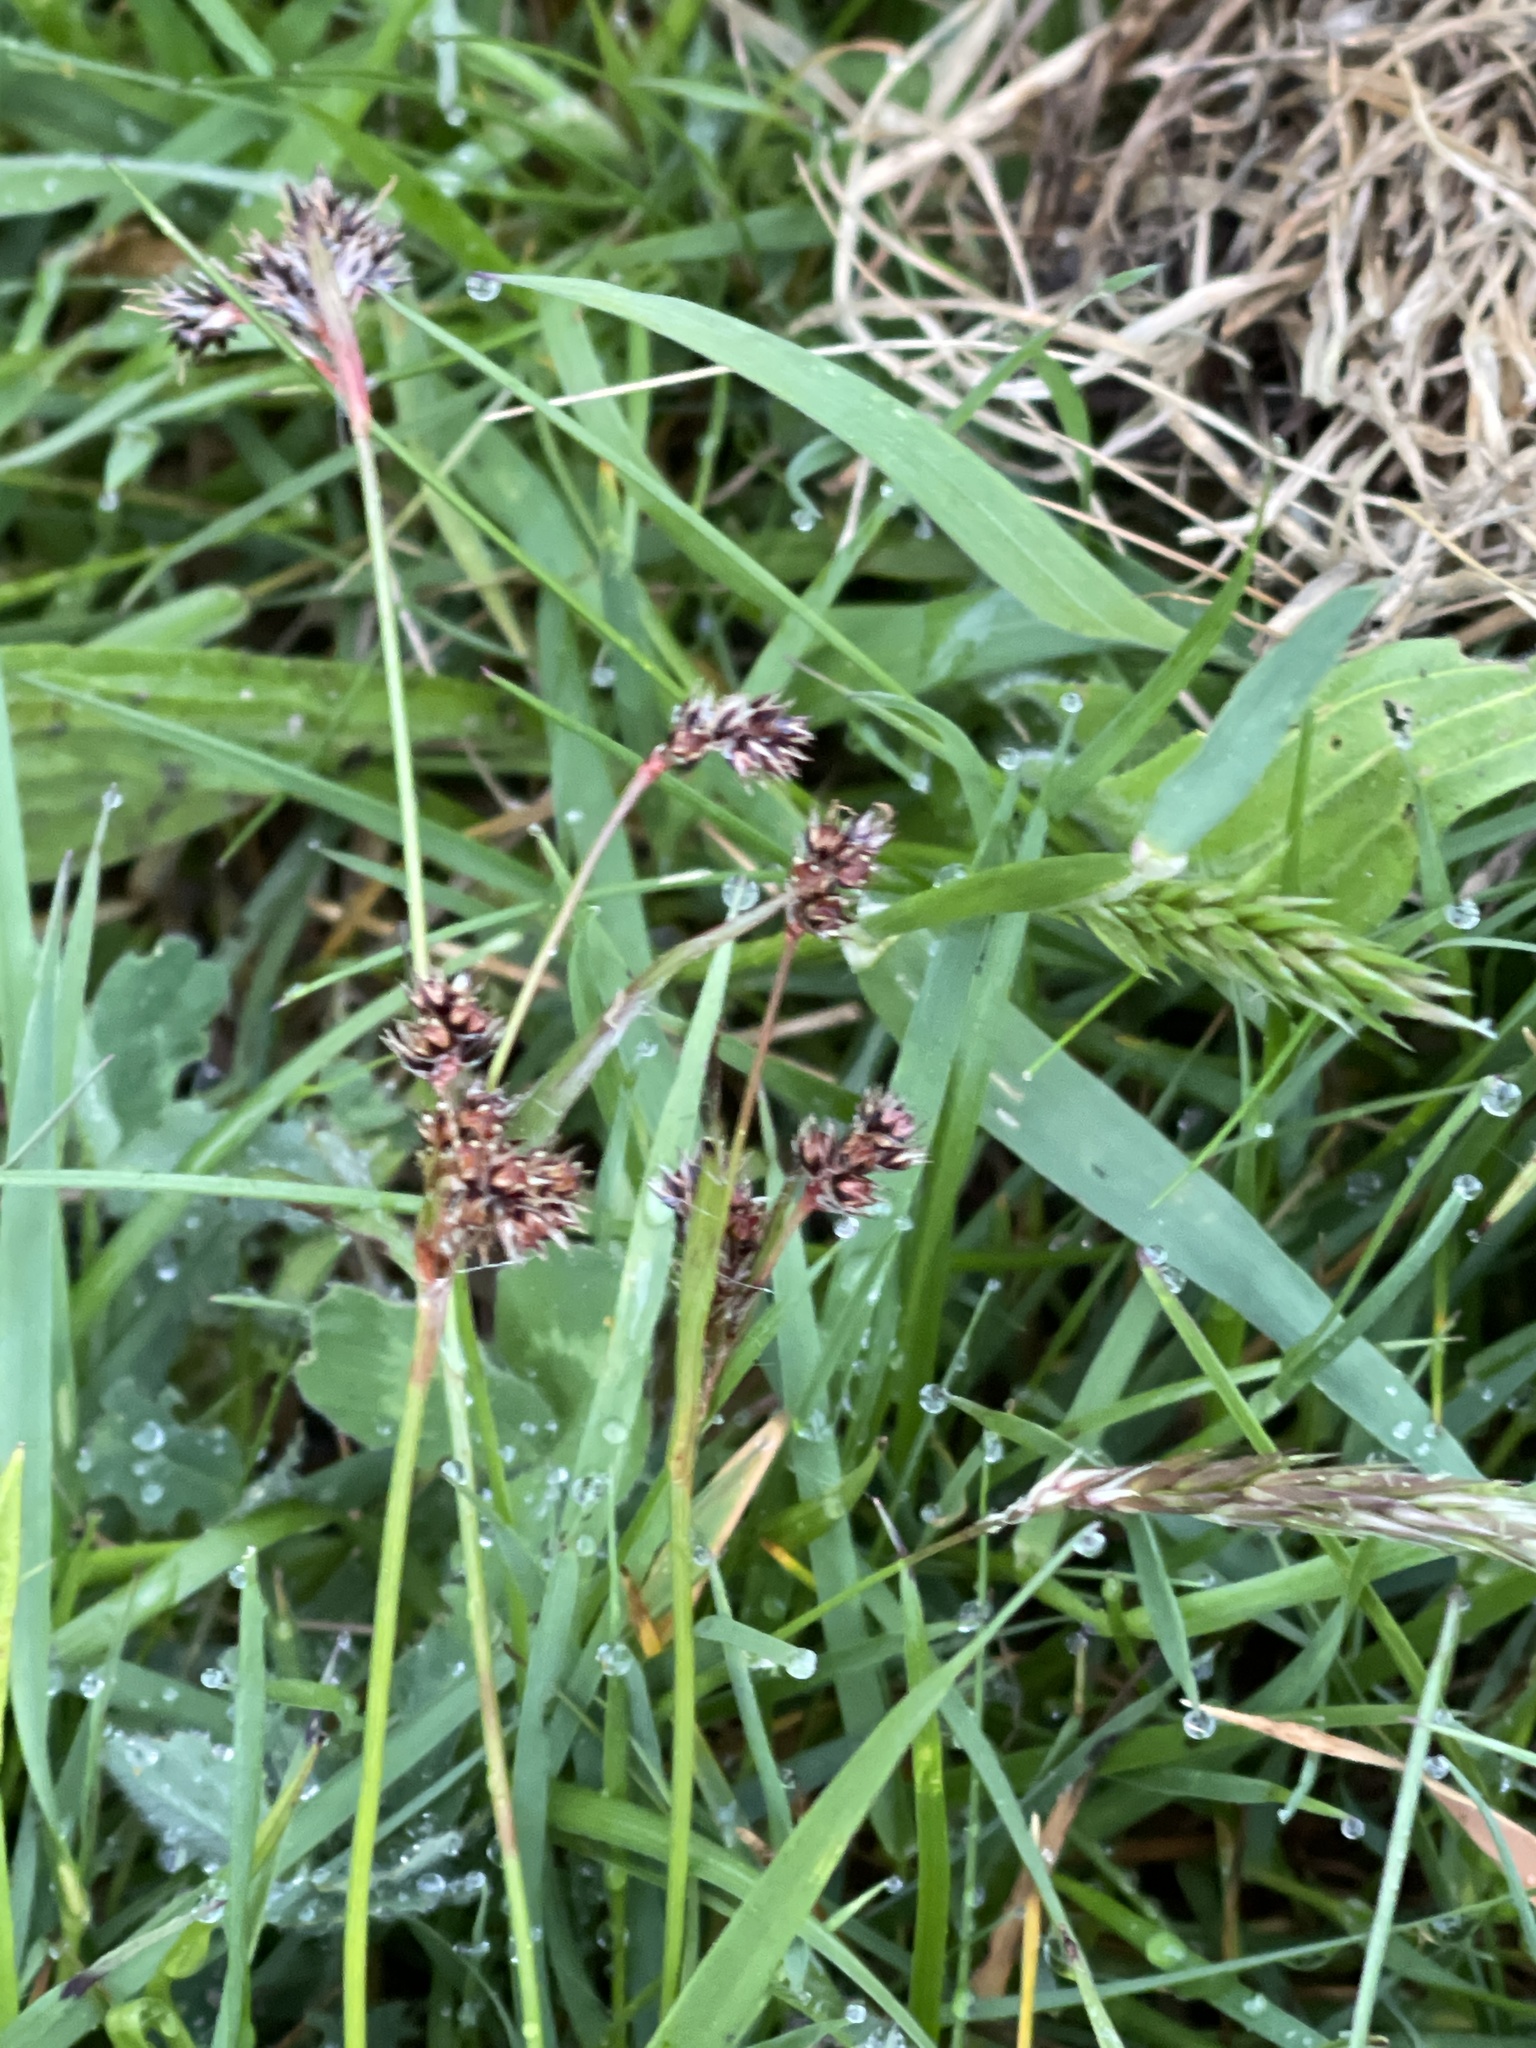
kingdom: Plantae
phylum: Tracheophyta
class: Liliopsida
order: Poales
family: Juncaceae
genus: Luzula
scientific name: Luzula campestris
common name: Field wood-rush
